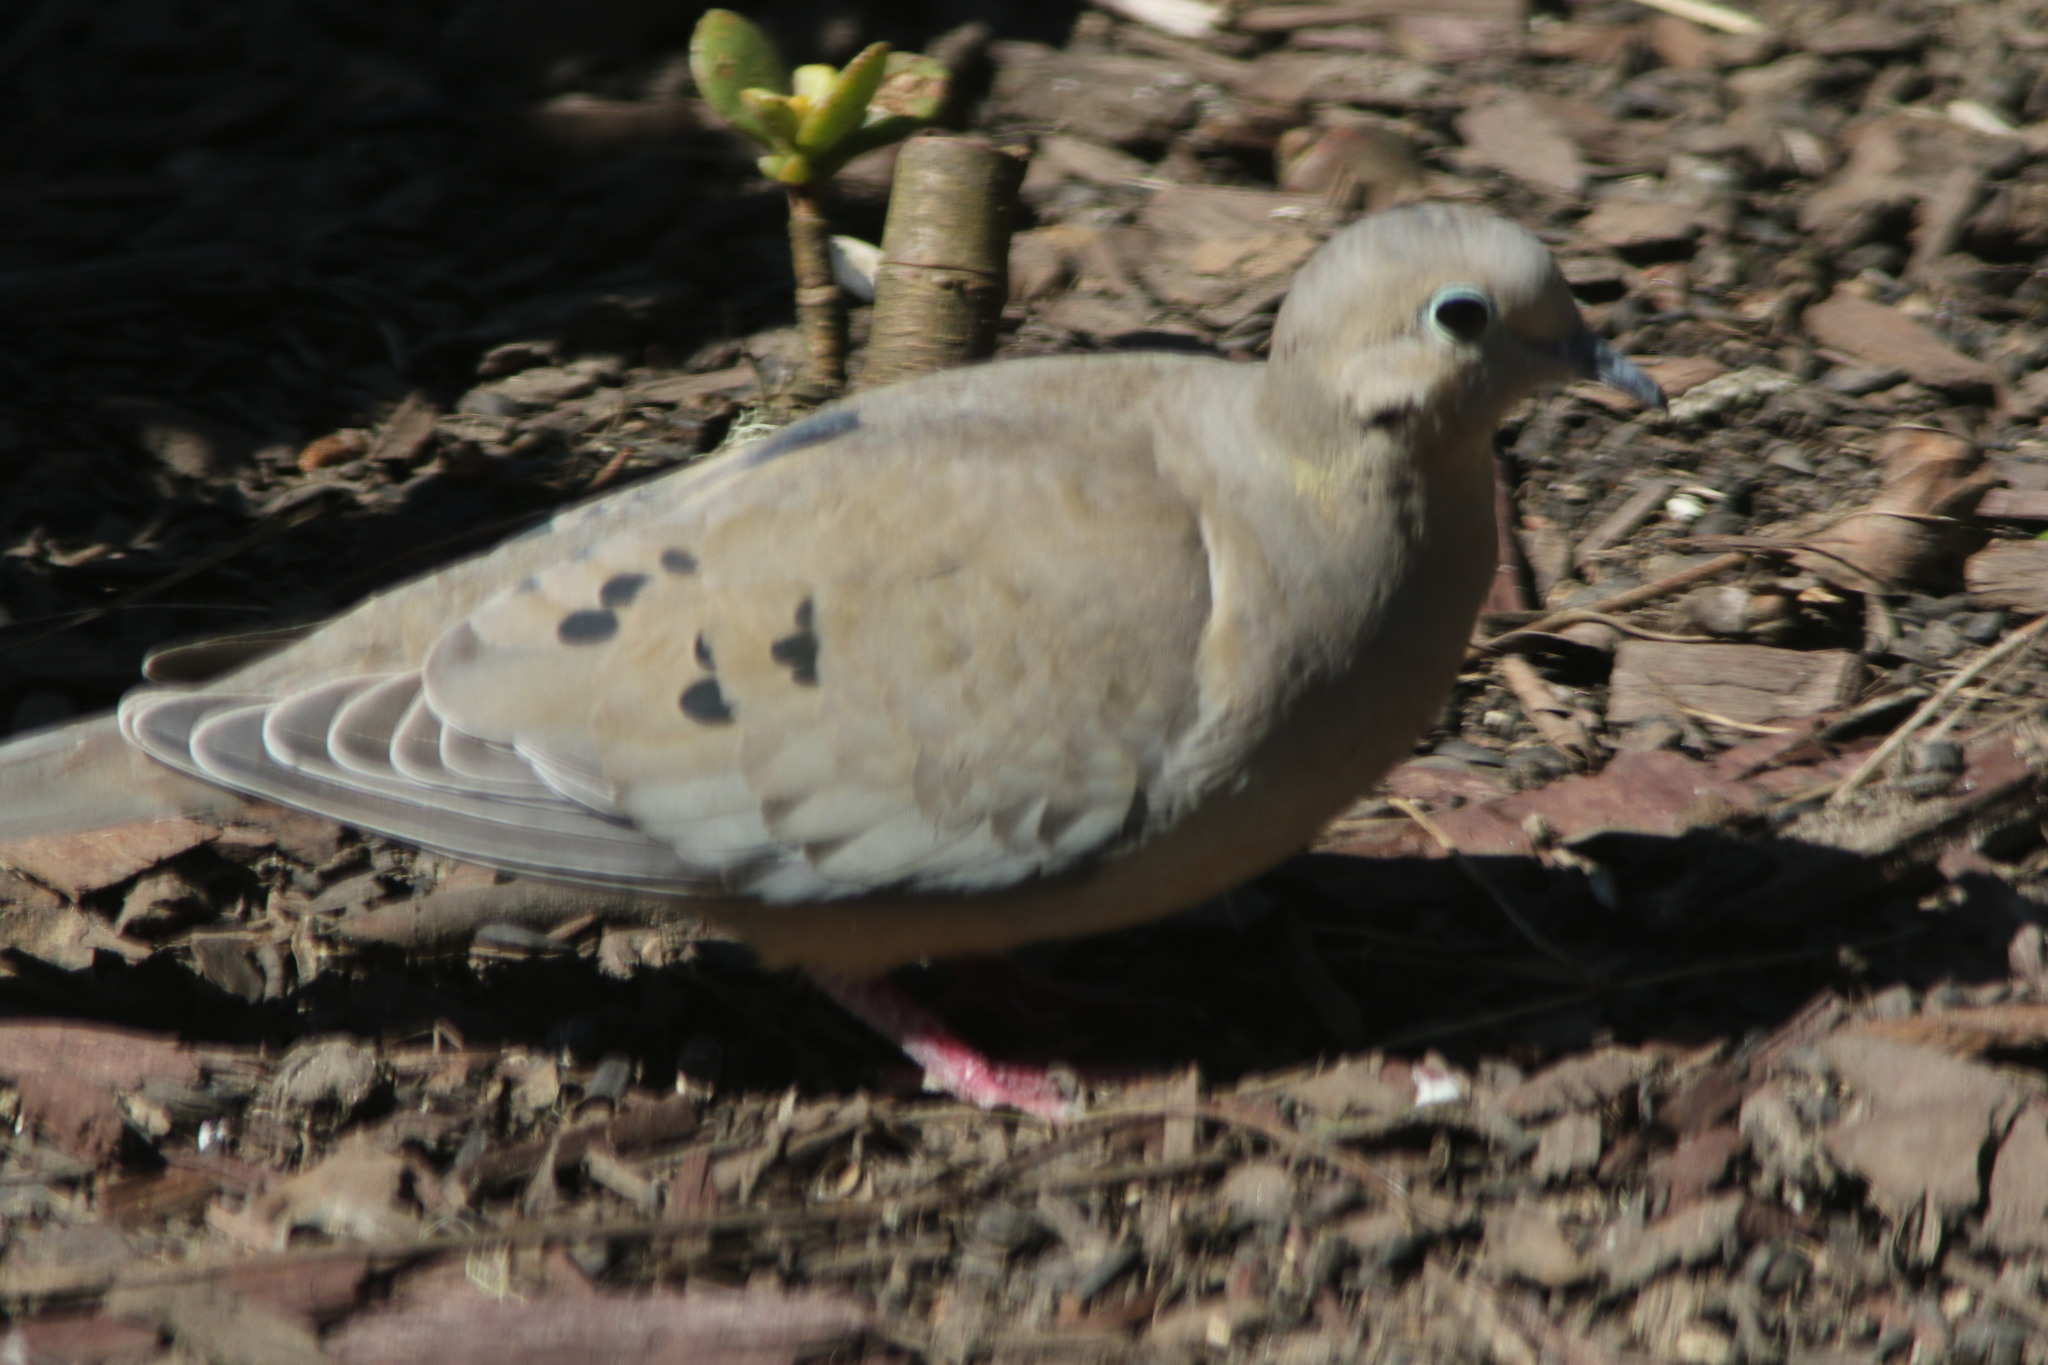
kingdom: Animalia
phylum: Chordata
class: Aves
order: Columbiformes
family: Columbidae
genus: Zenaida
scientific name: Zenaida macroura
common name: Mourning dove
